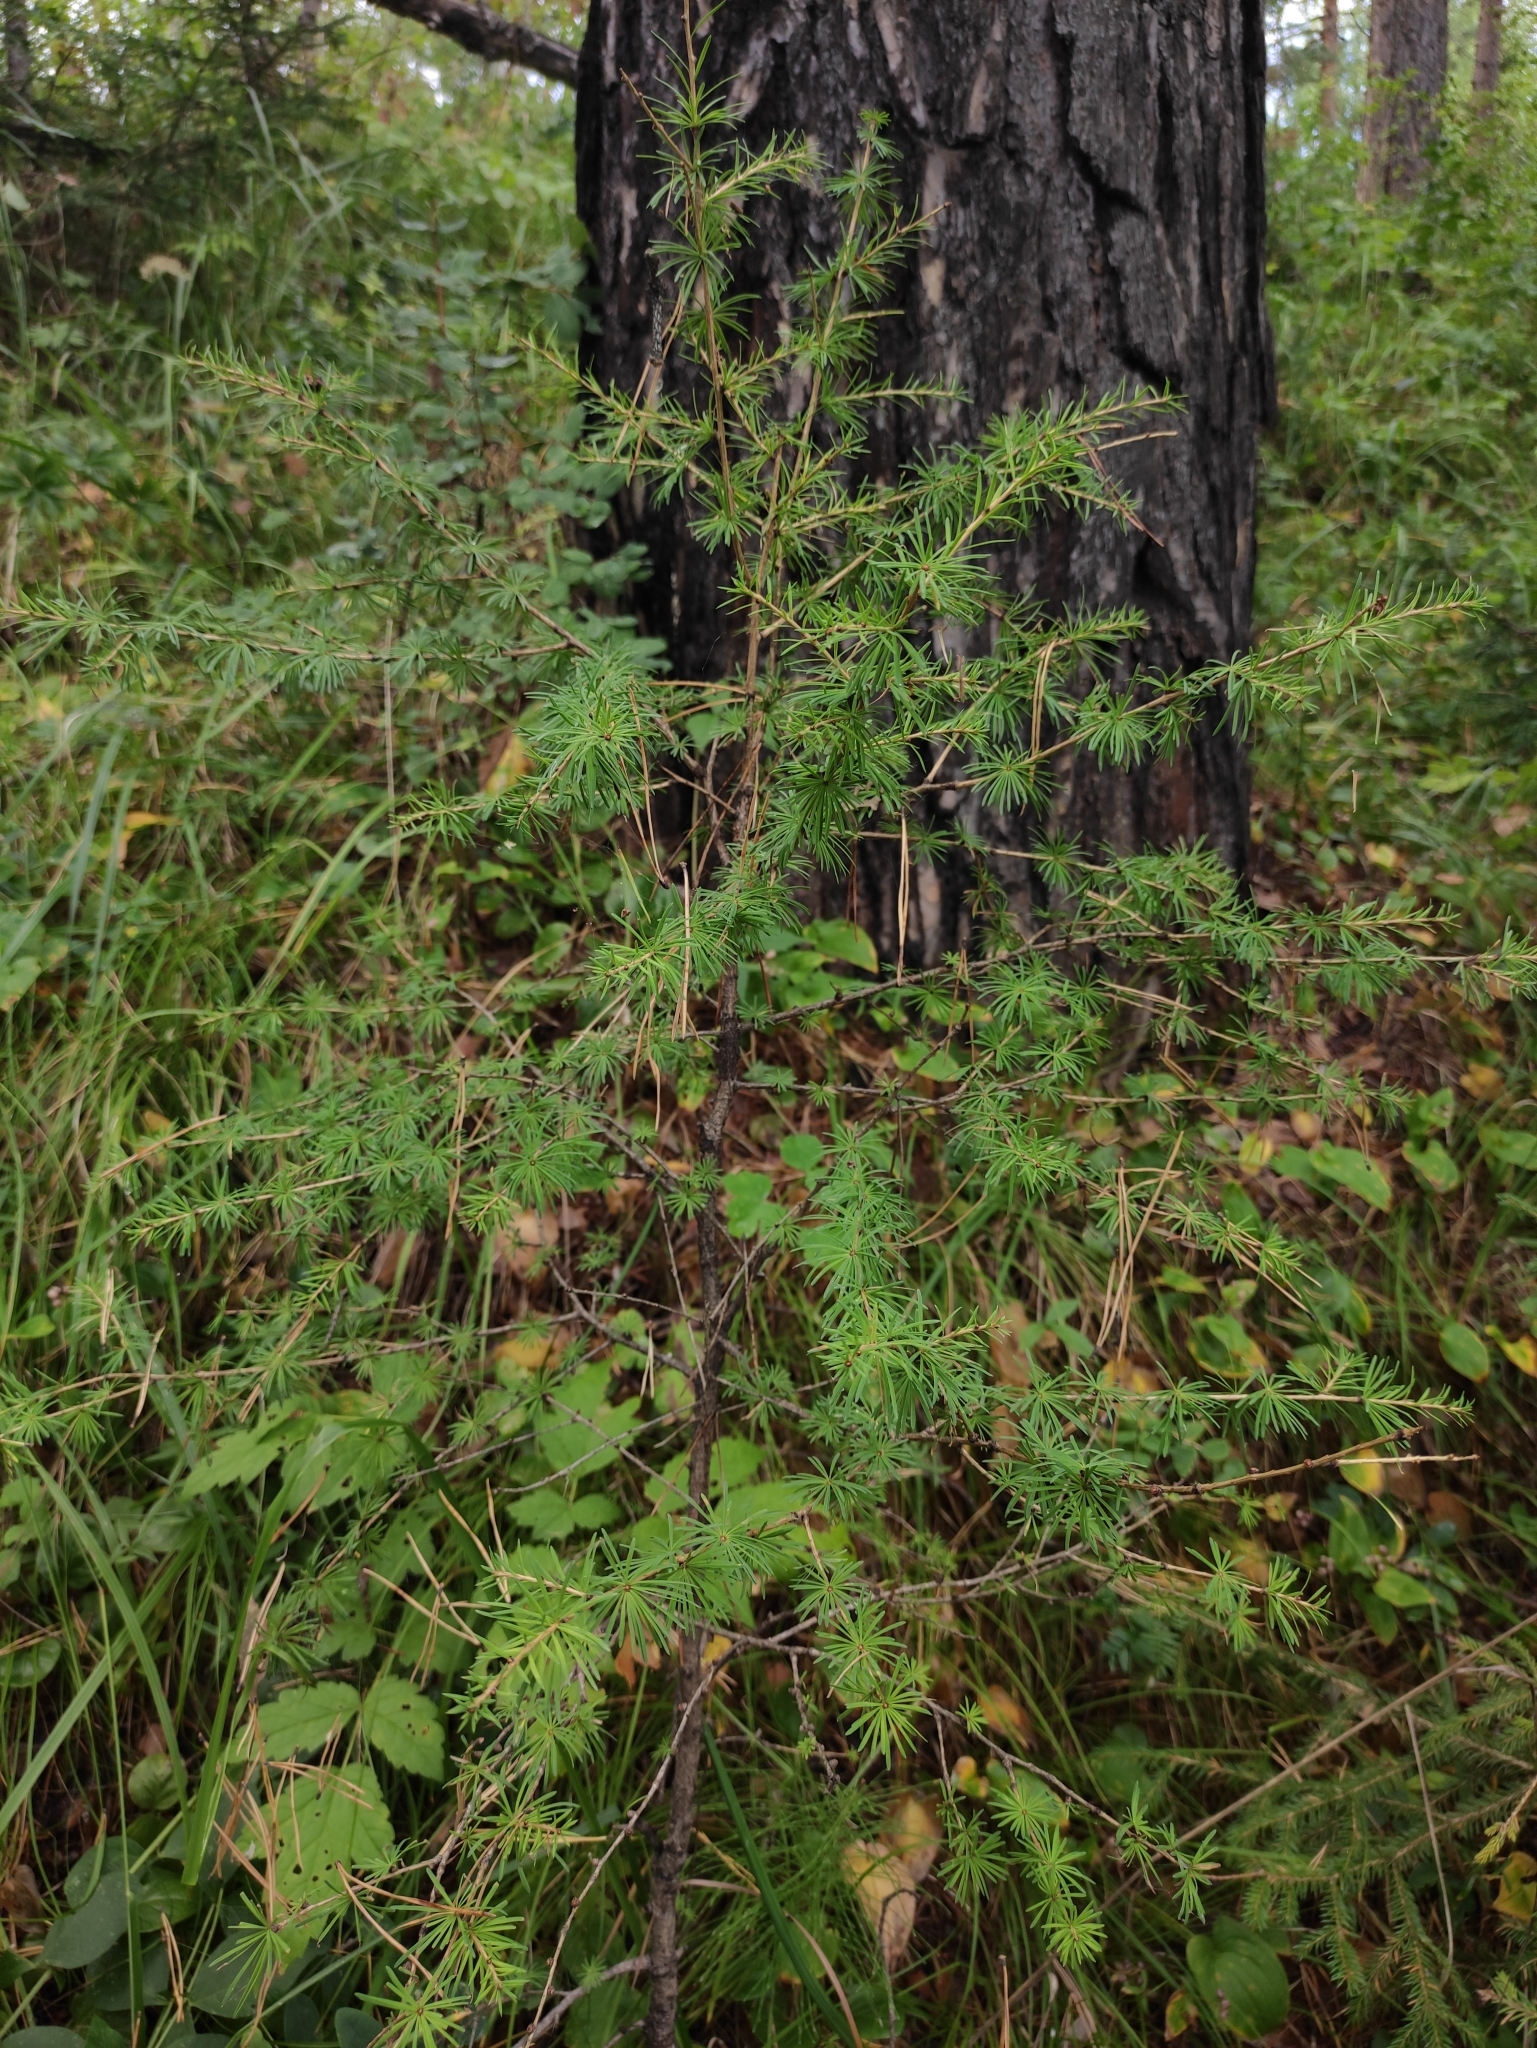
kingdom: Plantae
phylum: Tracheophyta
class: Pinopsida
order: Pinales
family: Pinaceae
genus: Larix
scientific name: Larix sibirica
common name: Siberian larch
